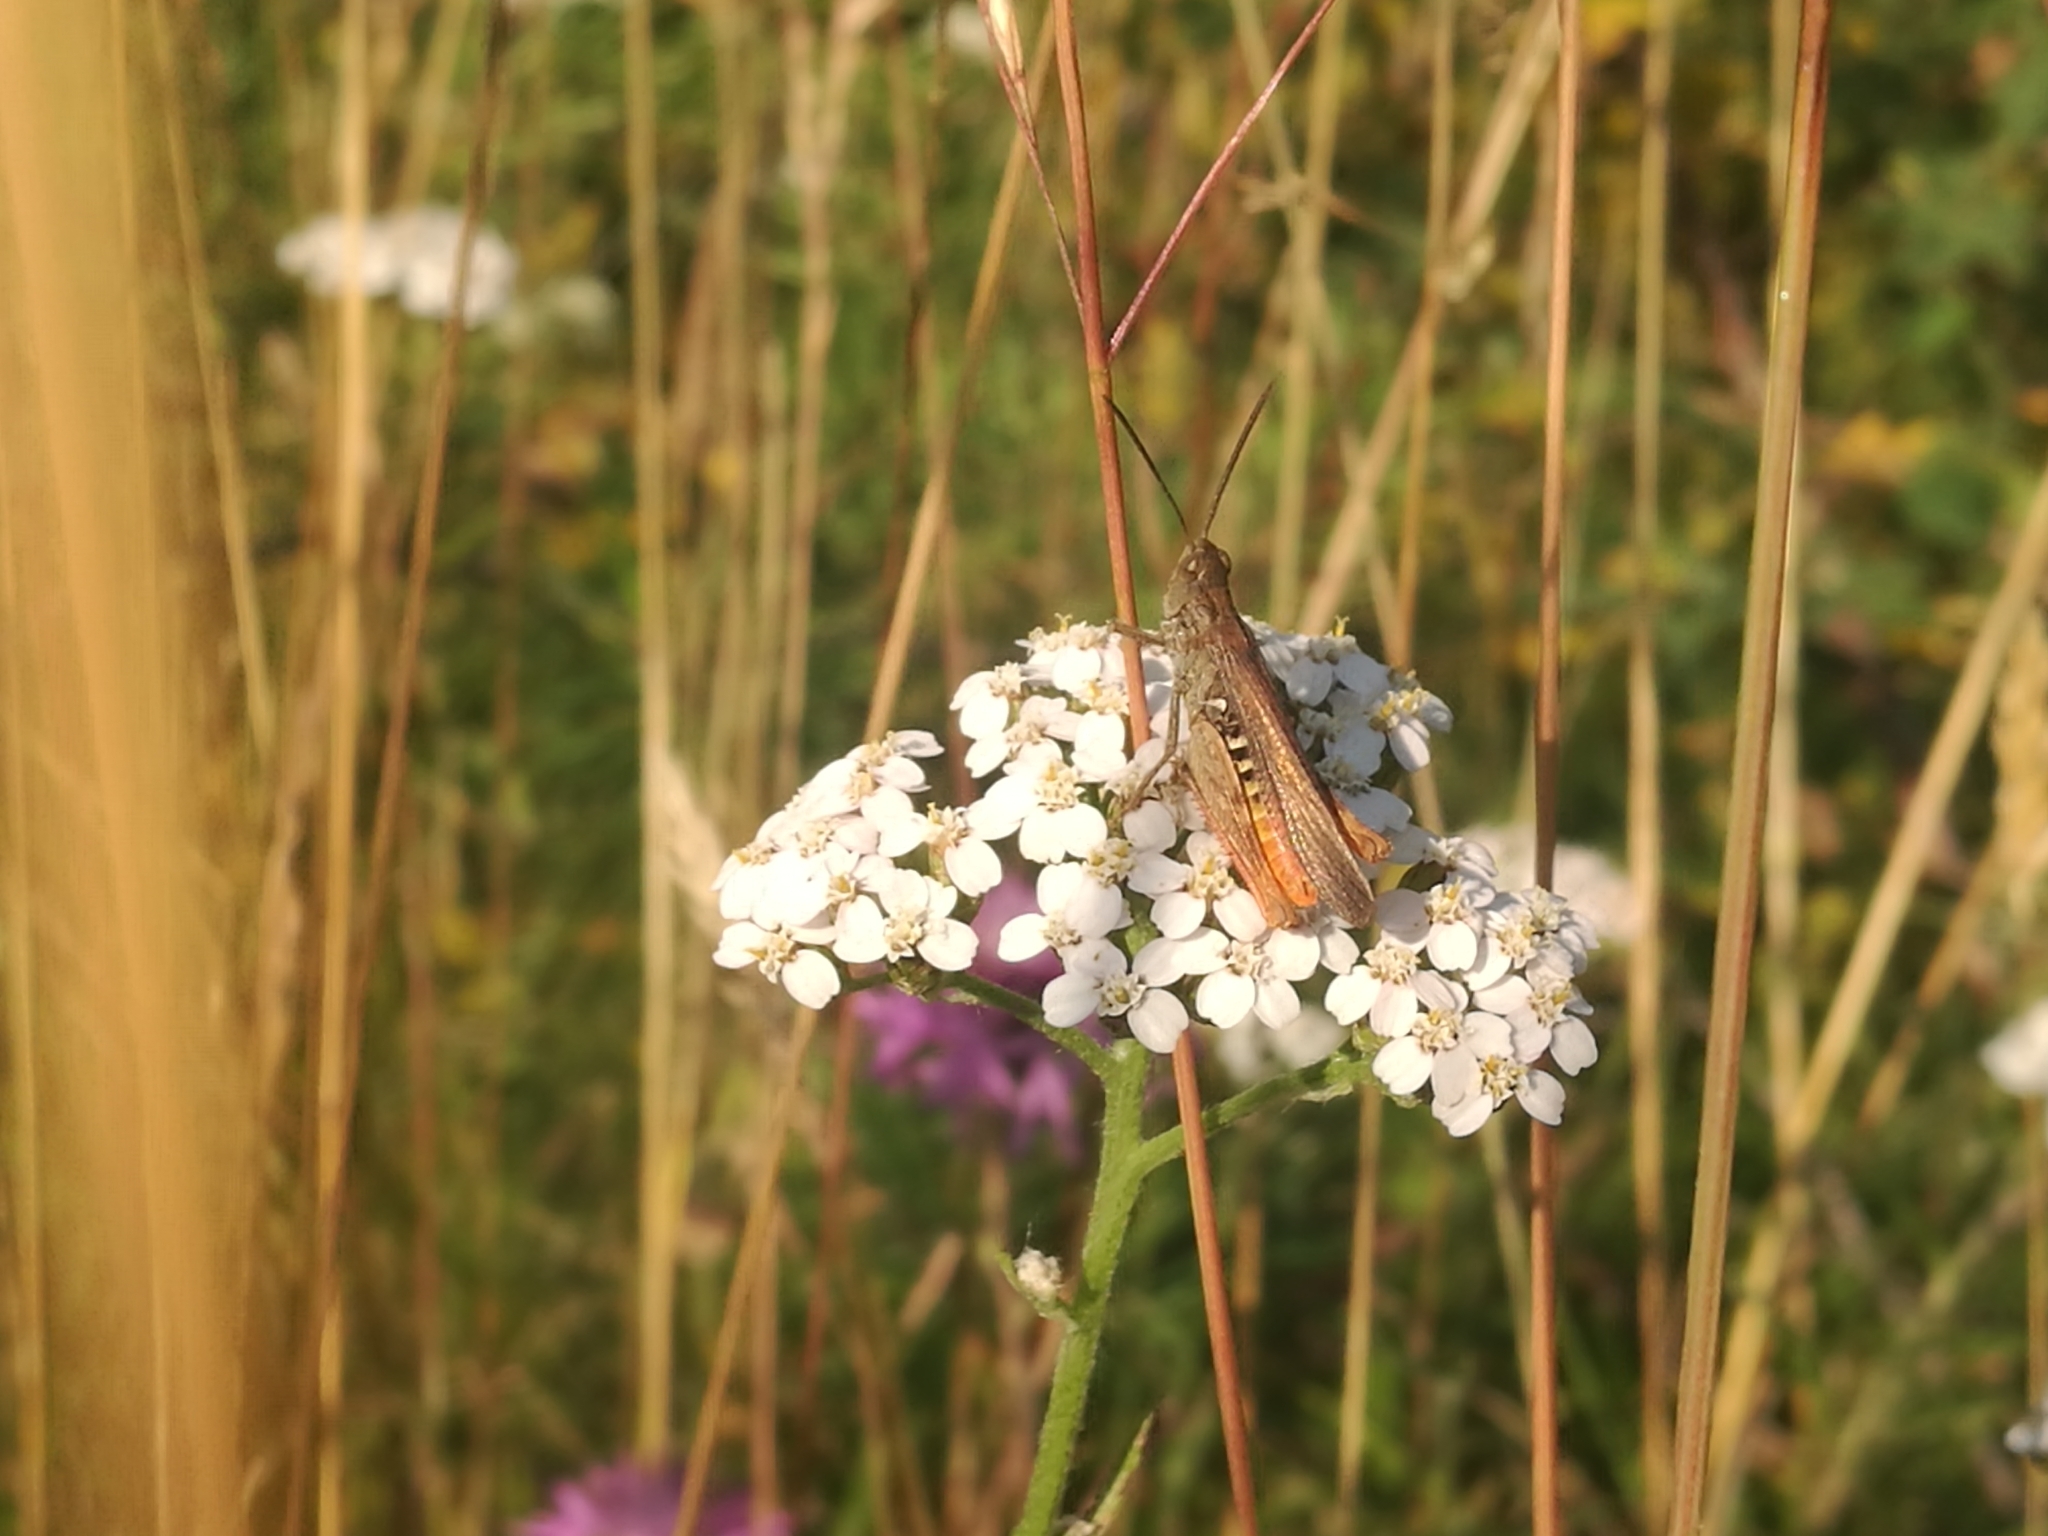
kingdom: Animalia
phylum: Arthropoda
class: Insecta
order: Orthoptera
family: Acrididae
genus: Chorthippus
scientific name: Chorthippus brunneus
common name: Field grasshopper
